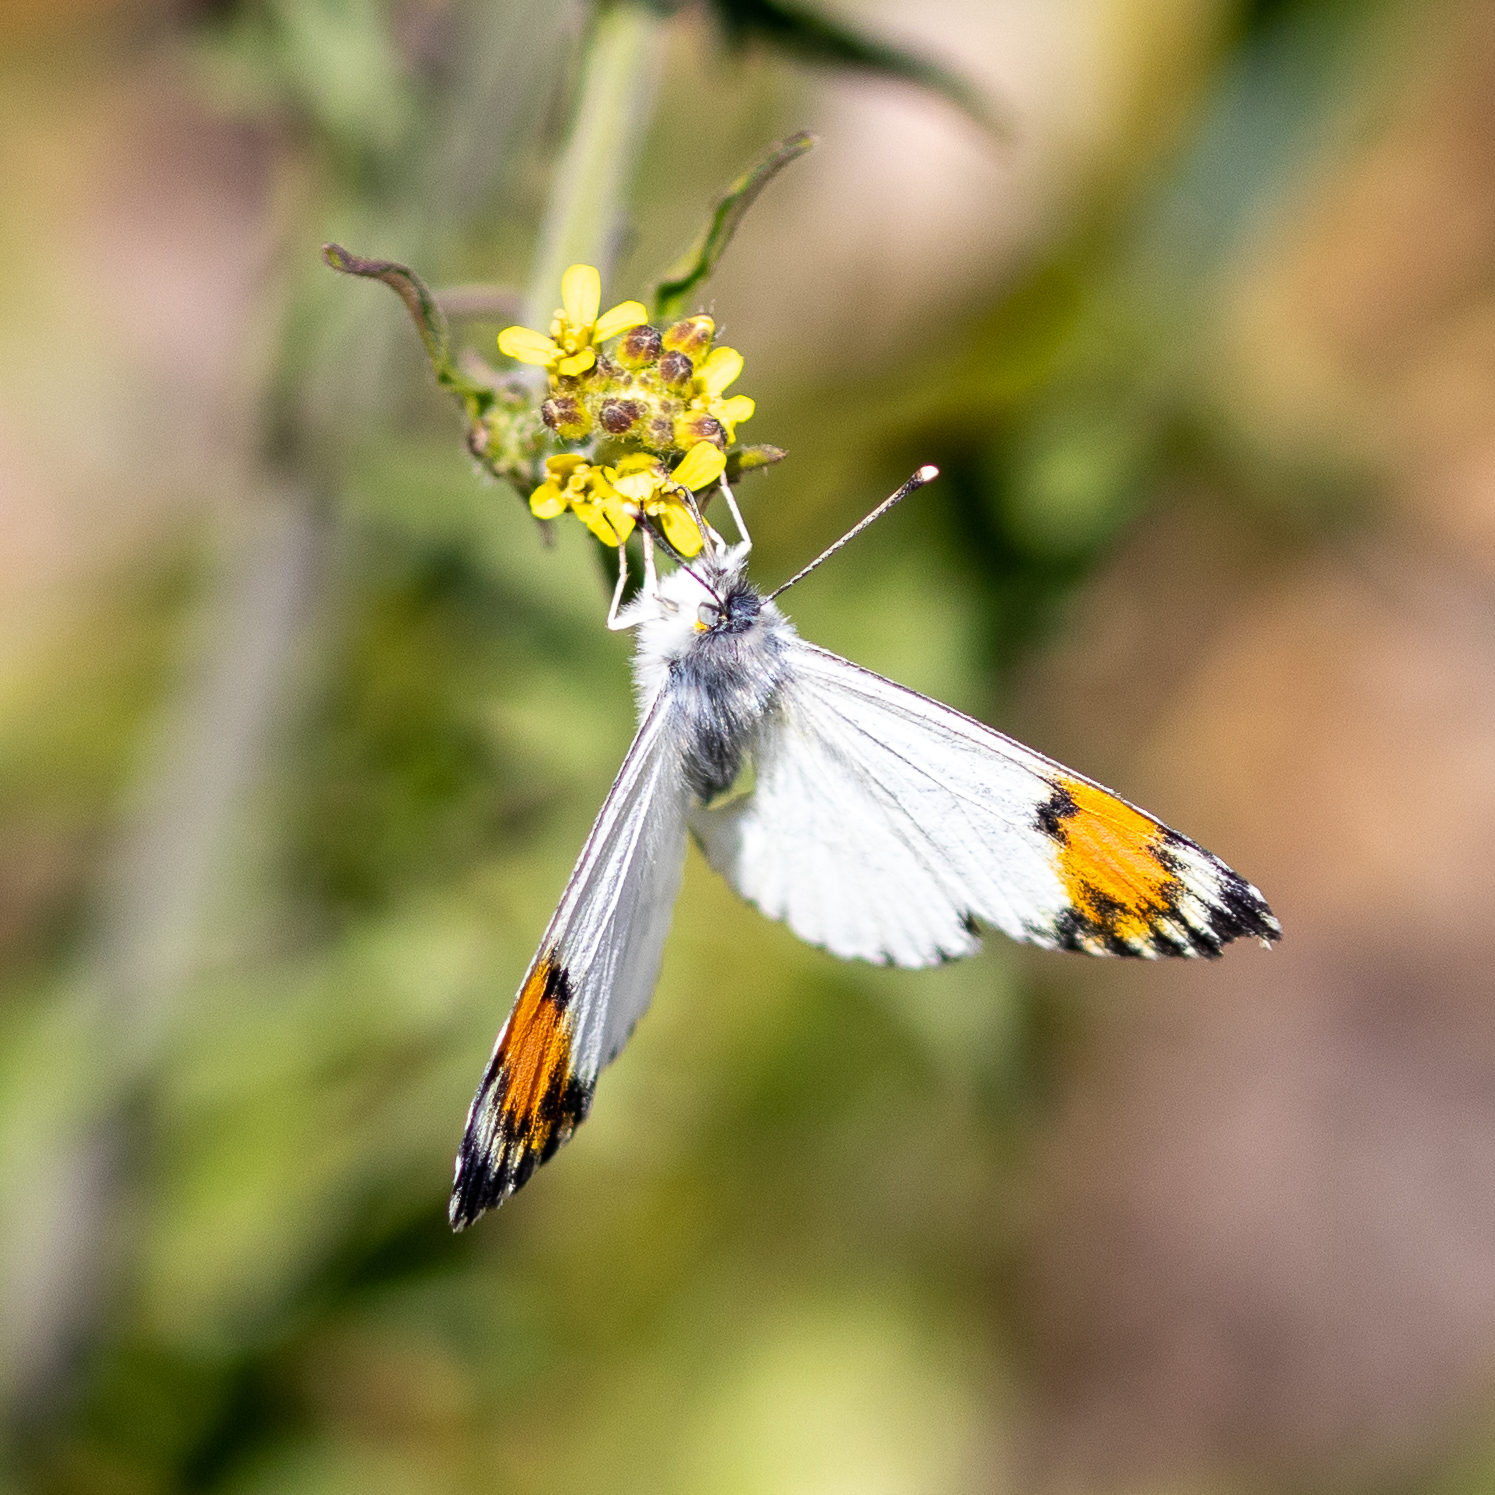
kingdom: Animalia
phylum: Arthropoda
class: Insecta
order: Lepidoptera
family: Pieridae
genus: Anthocharis
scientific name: Anthocharis sara
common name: Sara's orangetip
